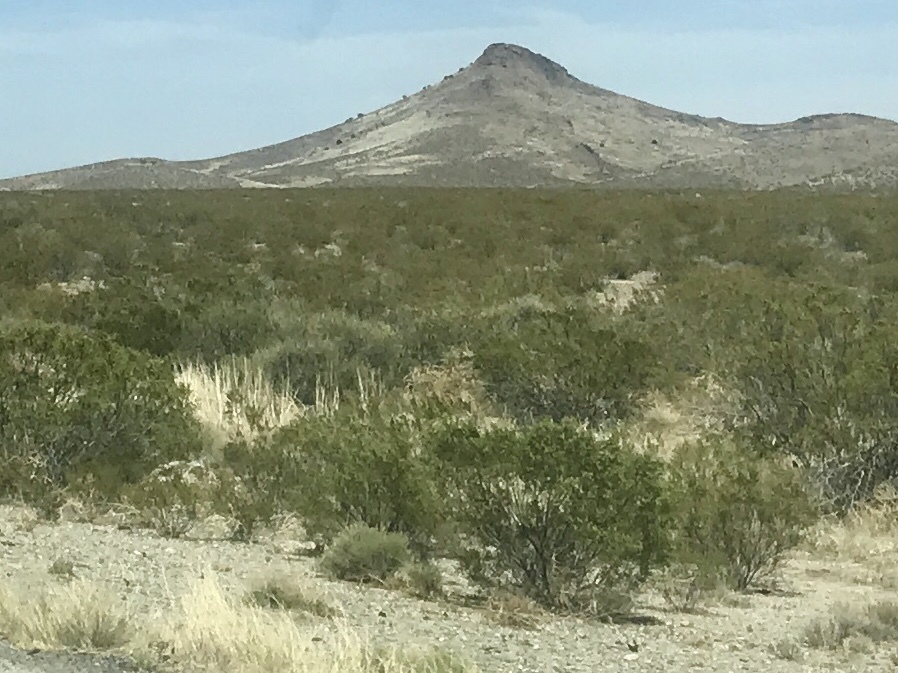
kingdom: Plantae
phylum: Tracheophyta
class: Magnoliopsida
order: Zygophyllales
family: Zygophyllaceae
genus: Larrea
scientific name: Larrea tridentata
